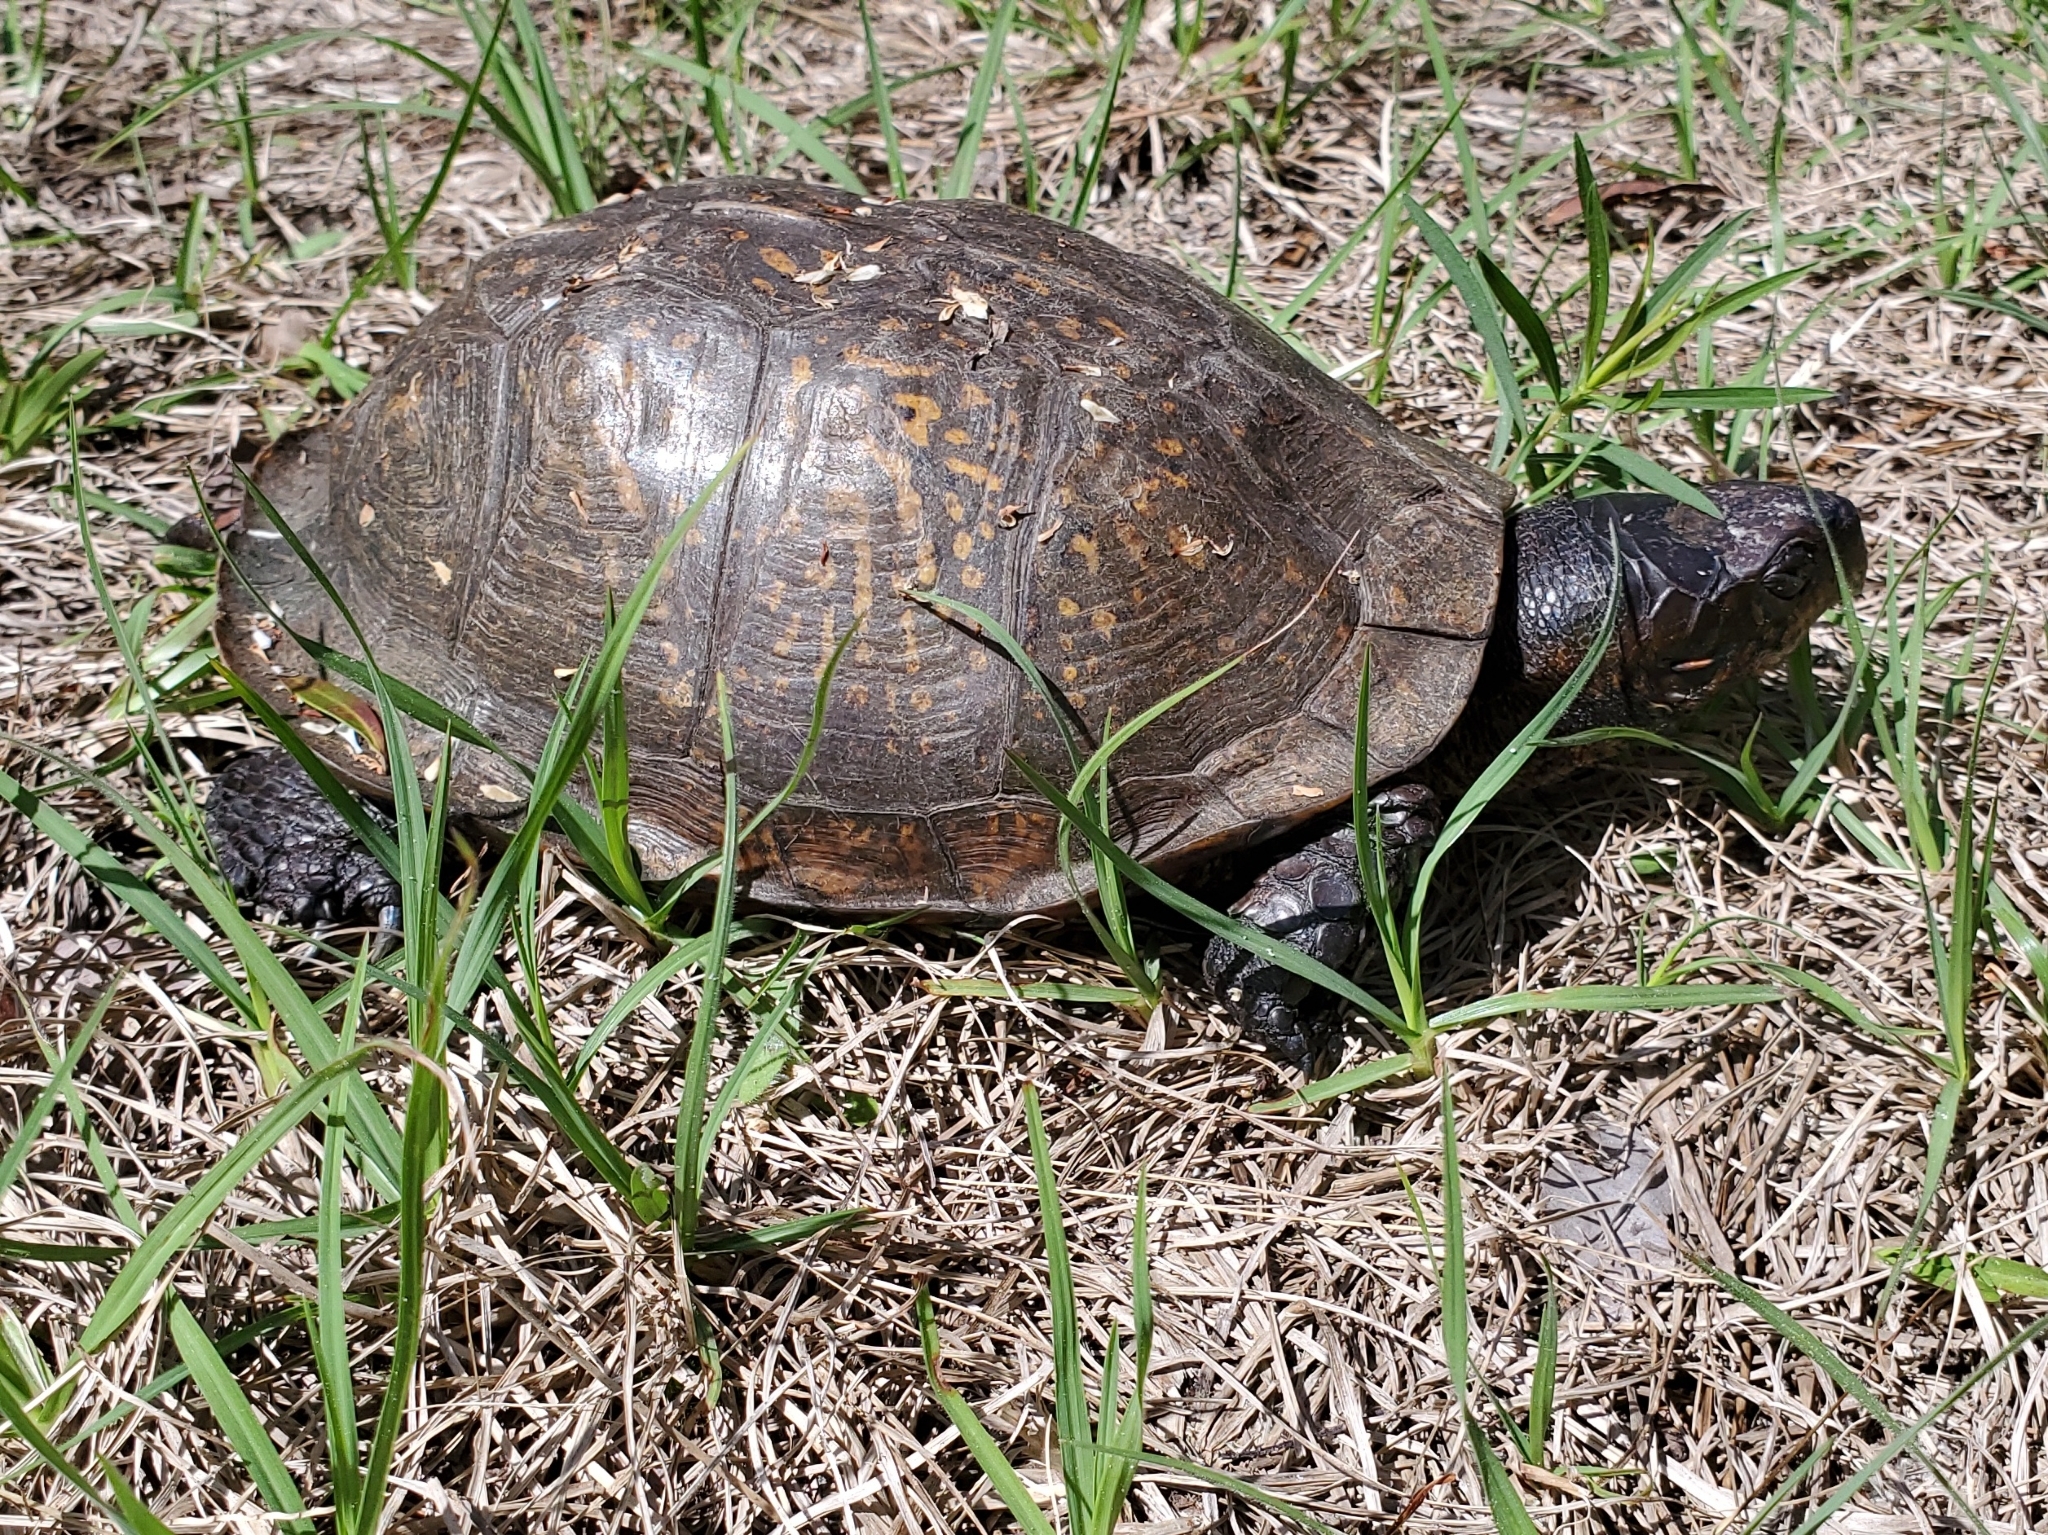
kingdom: Animalia
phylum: Chordata
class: Testudines
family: Emydidae
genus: Terrapene
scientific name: Terrapene carolina
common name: Common box turtle
